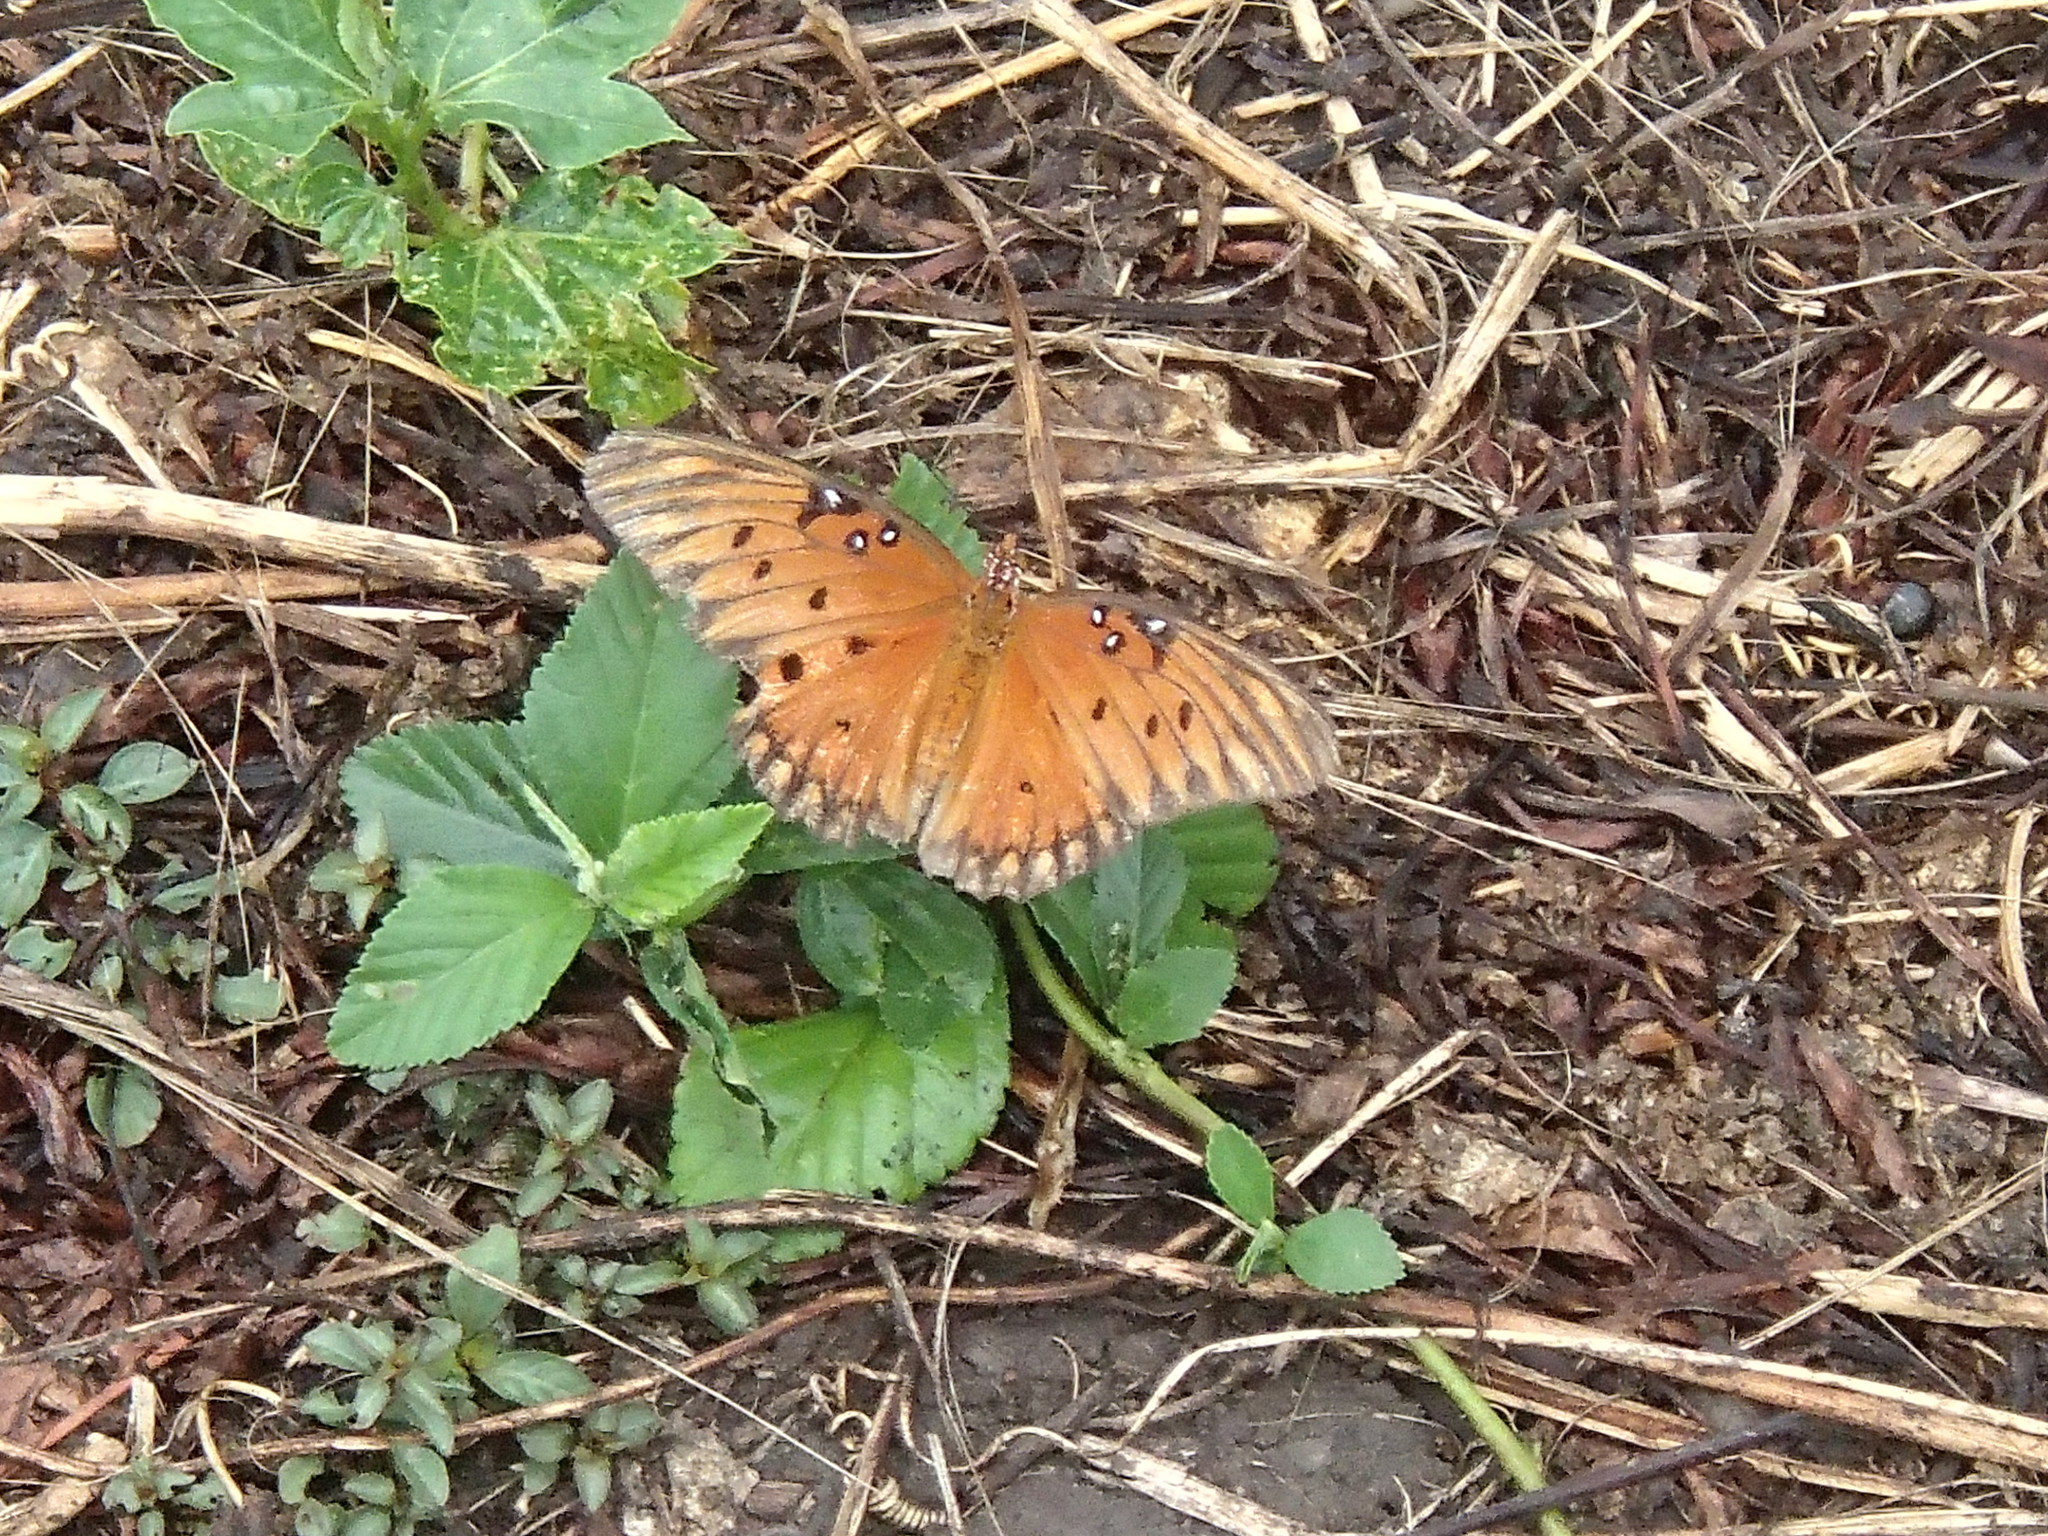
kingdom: Animalia
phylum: Arthropoda
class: Insecta
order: Lepidoptera
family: Nymphalidae
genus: Dione
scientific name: Dione vanillae
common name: Gulf fritillary
